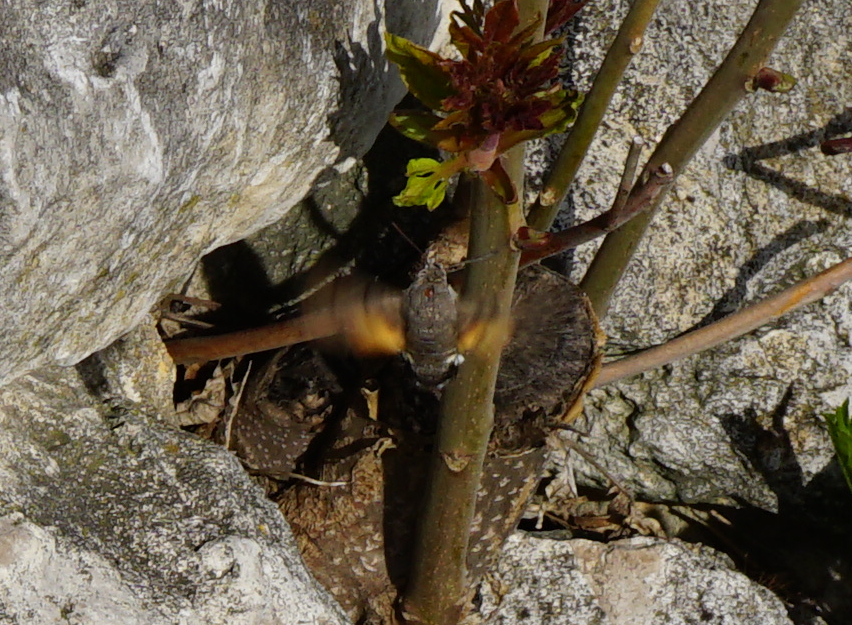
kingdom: Animalia
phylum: Arthropoda
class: Insecta
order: Lepidoptera
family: Sphingidae
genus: Macroglossum
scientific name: Macroglossum stellatarum
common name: Humming-bird hawk-moth
